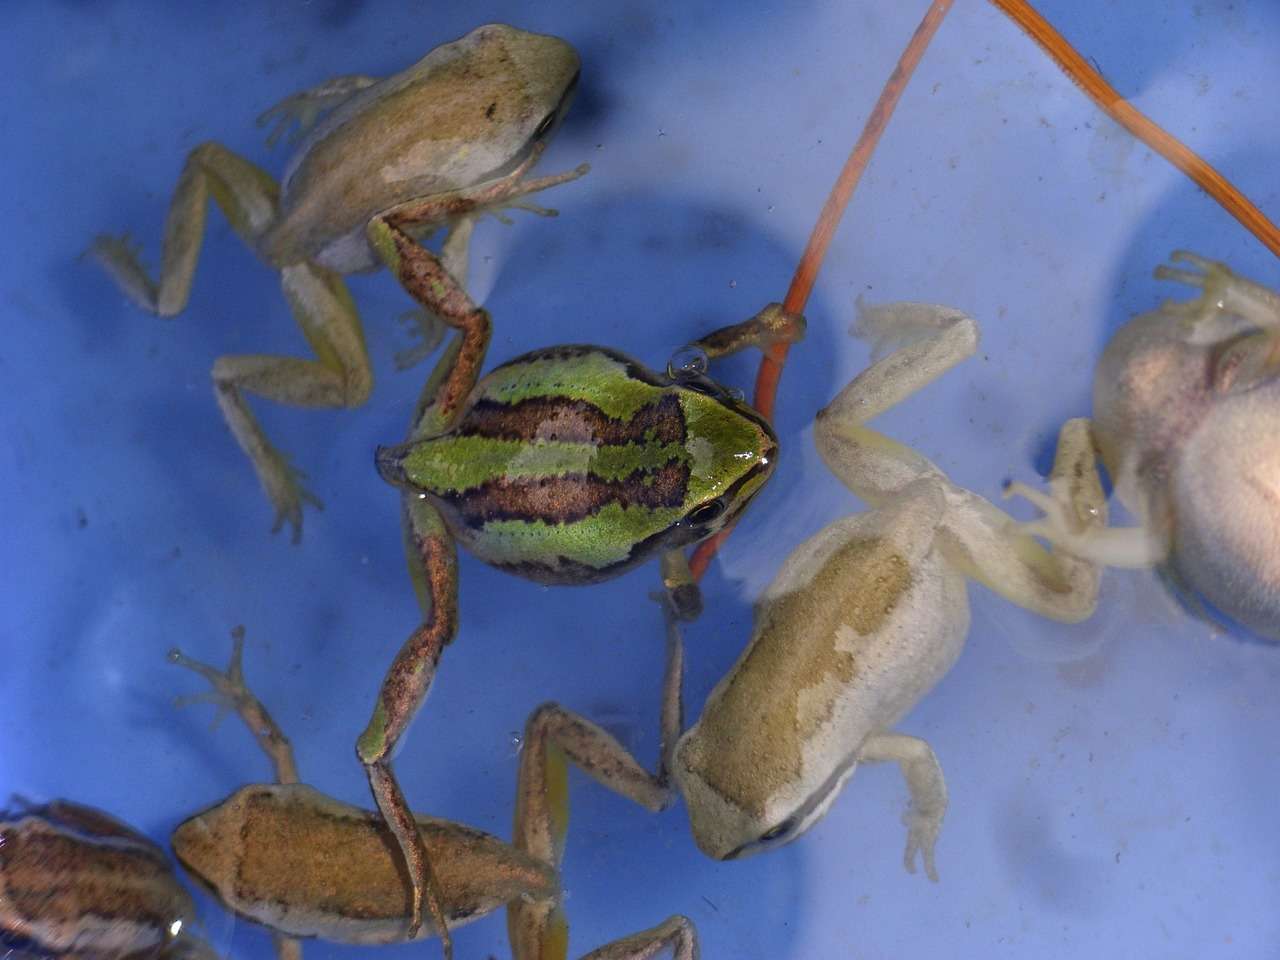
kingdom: Animalia
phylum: Chordata
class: Amphibia
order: Anura
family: Pelodryadidae
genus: Litoria
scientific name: Litoria ewingii
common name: Southern brown tree frog
